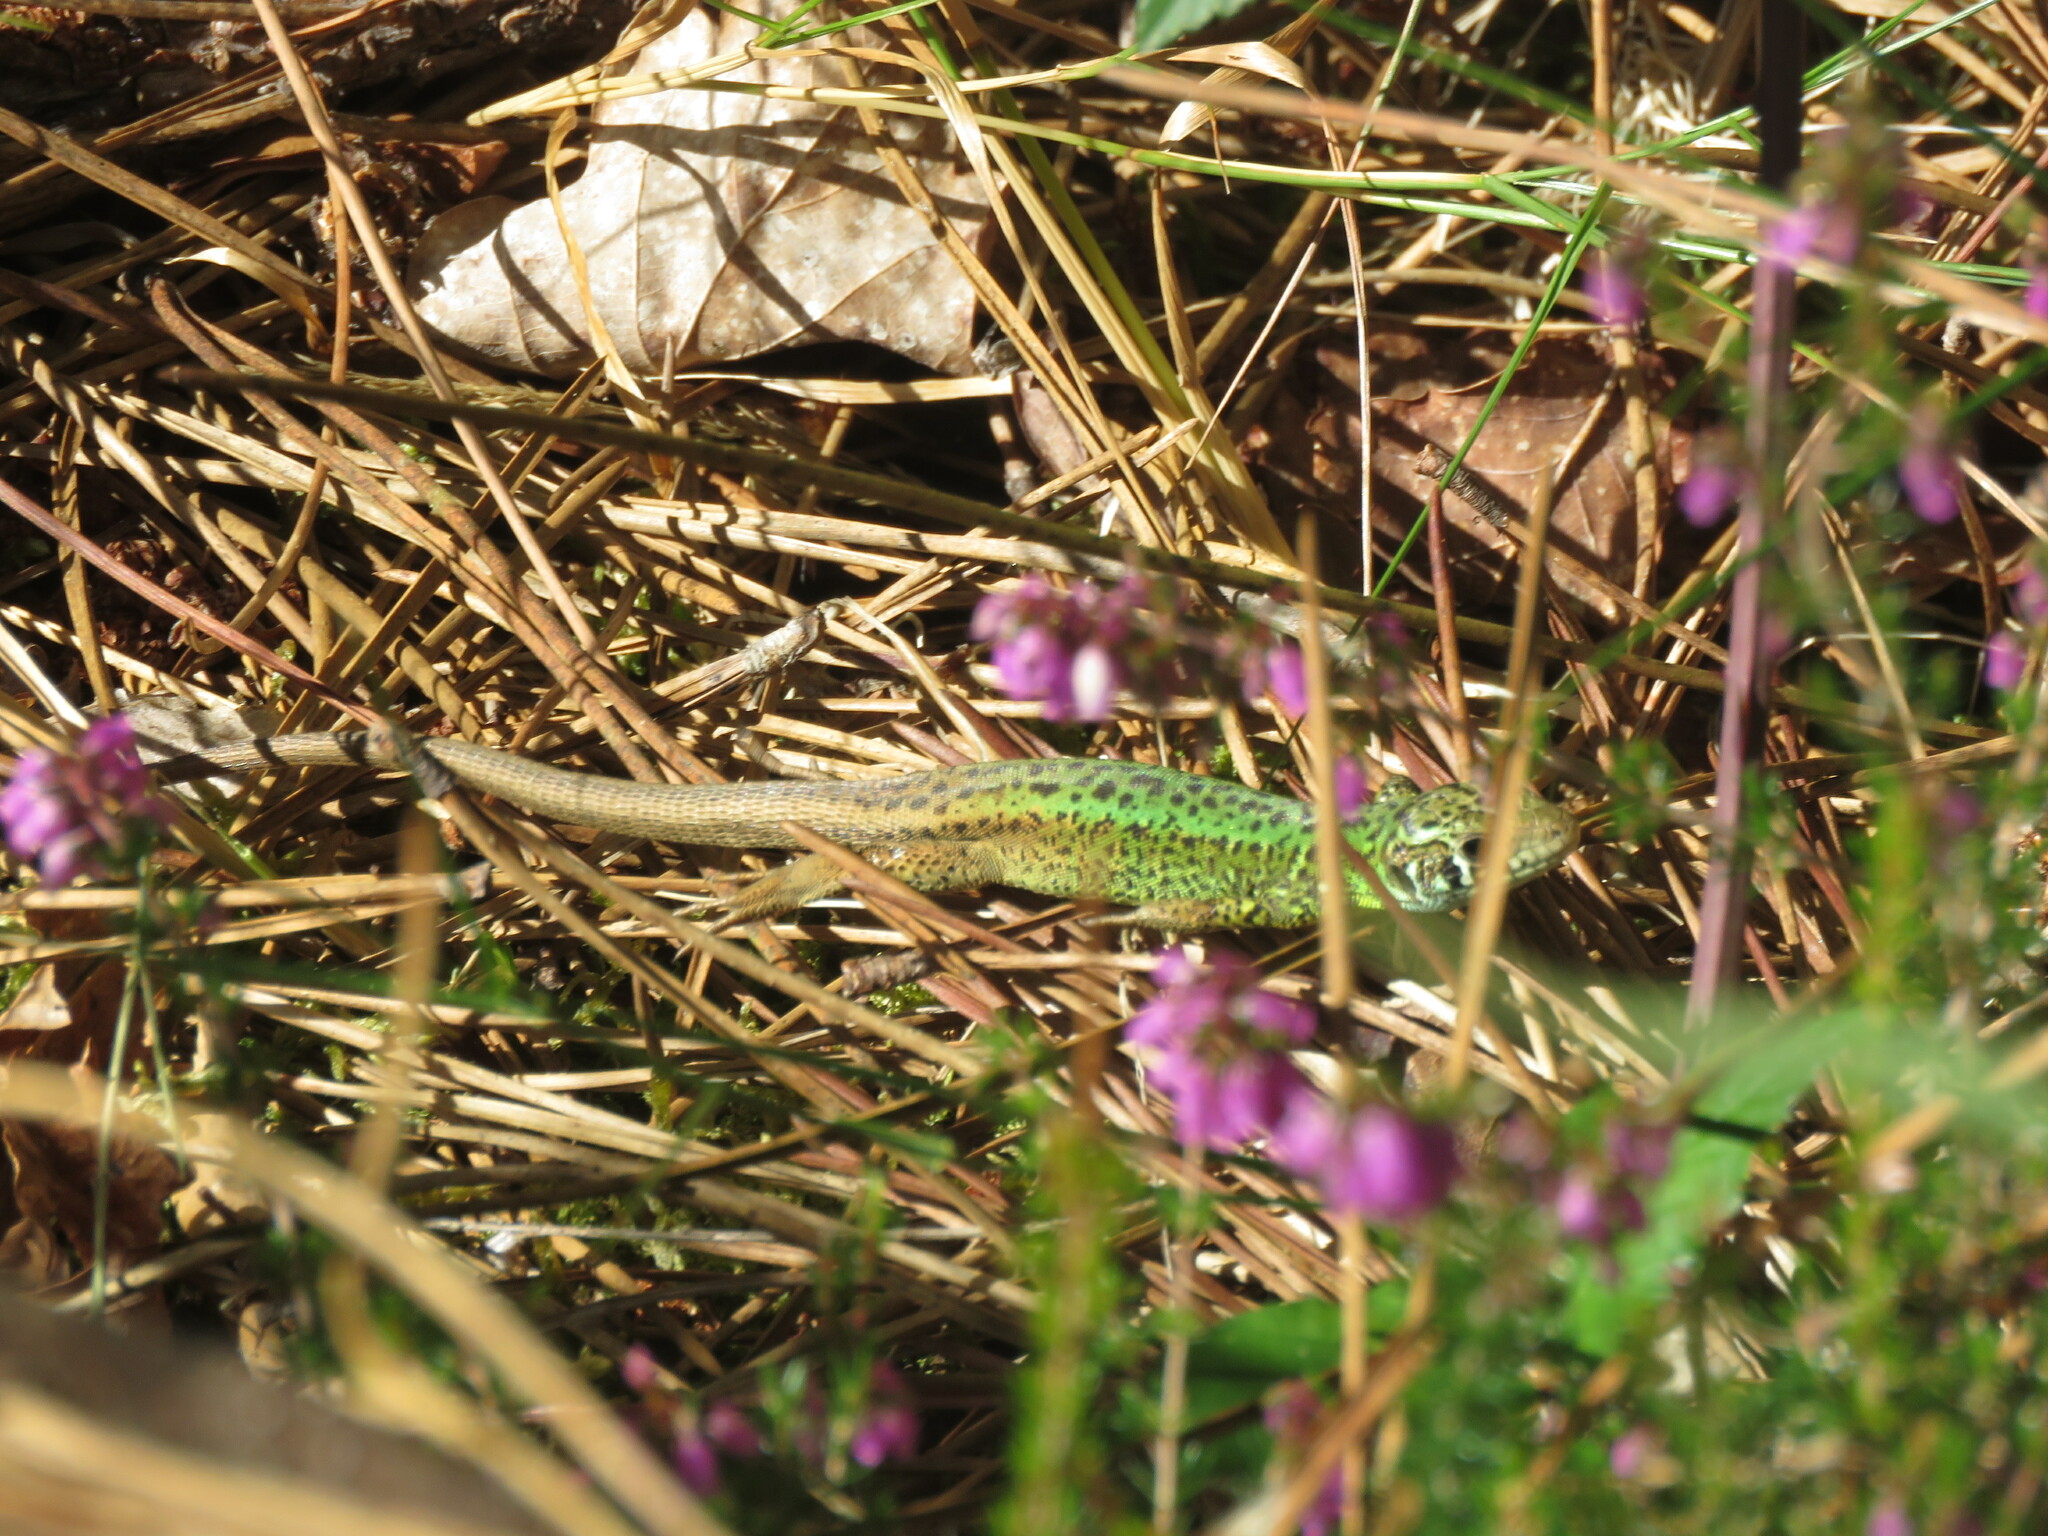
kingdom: Animalia
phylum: Chordata
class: Squamata
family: Lacertidae
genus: Lacerta
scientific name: Lacerta schreiberi
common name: Iberian emerald lizard
